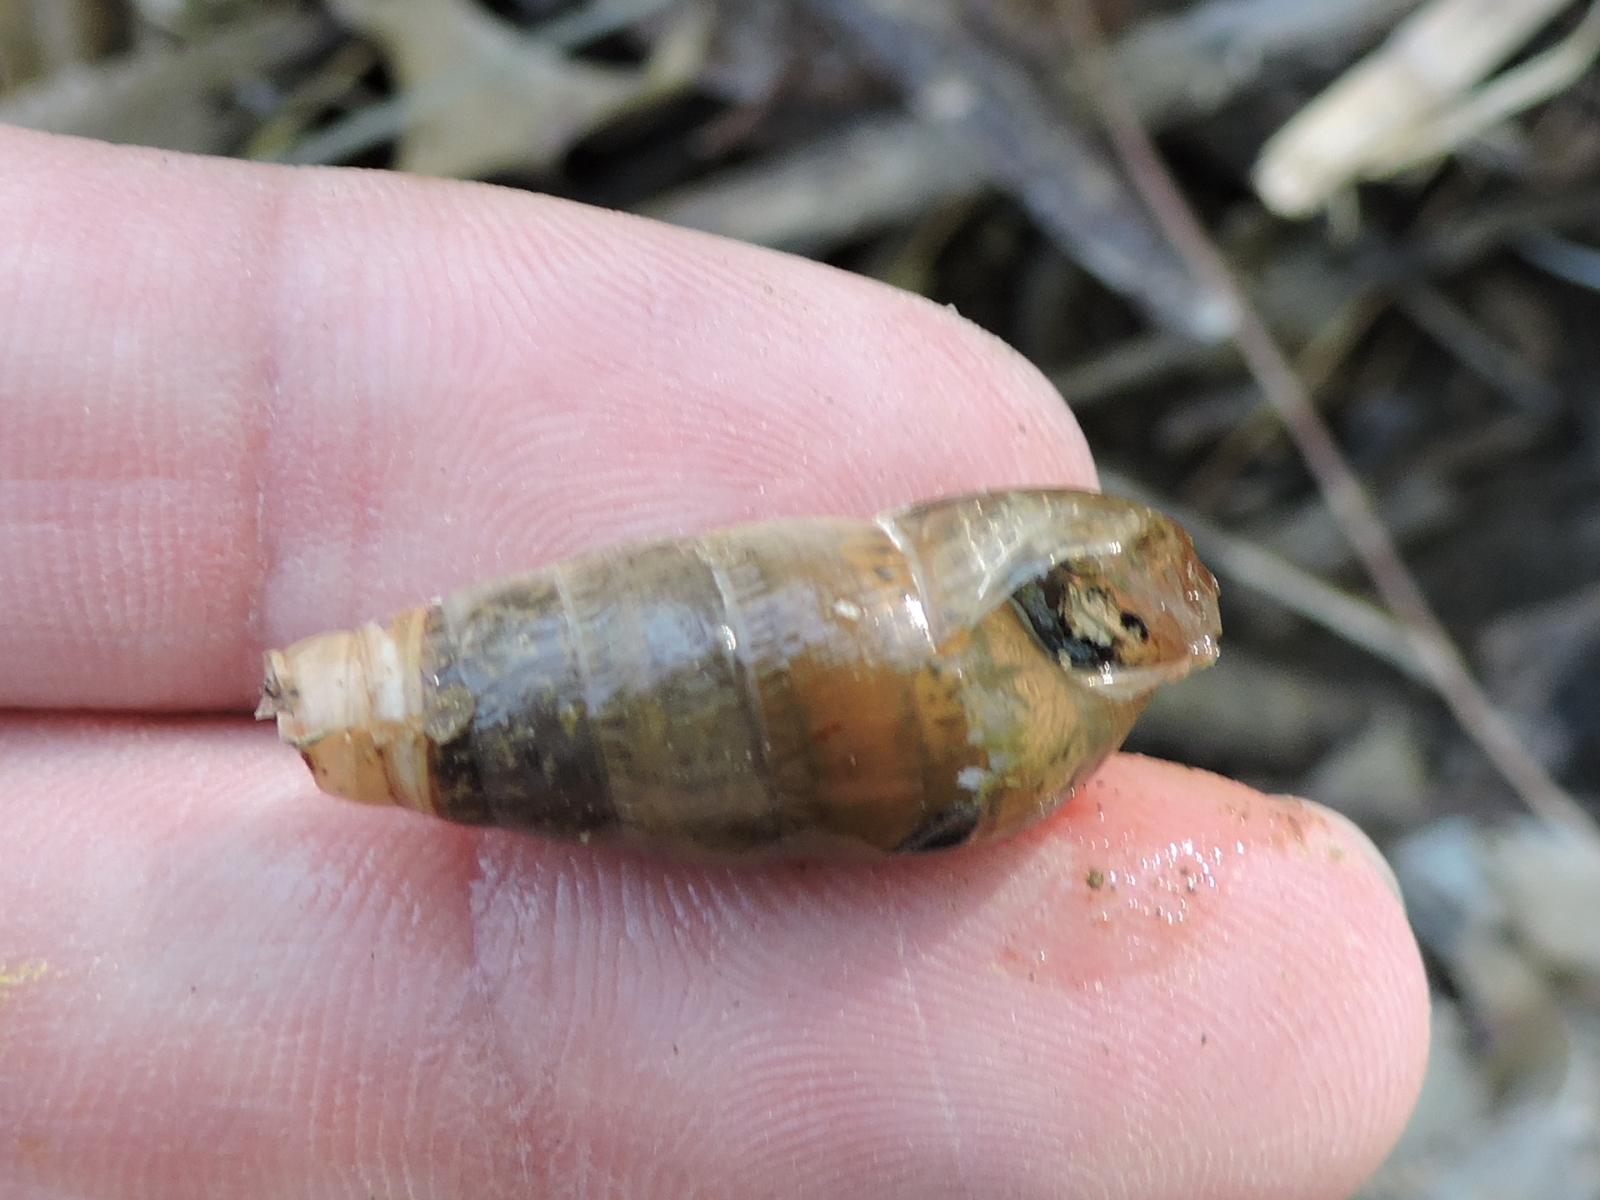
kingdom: Animalia
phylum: Mollusca
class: Gastropoda
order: Stylommatophora
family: Achatinidae
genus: Rumina
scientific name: Rumina decollata
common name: Decollate snail
